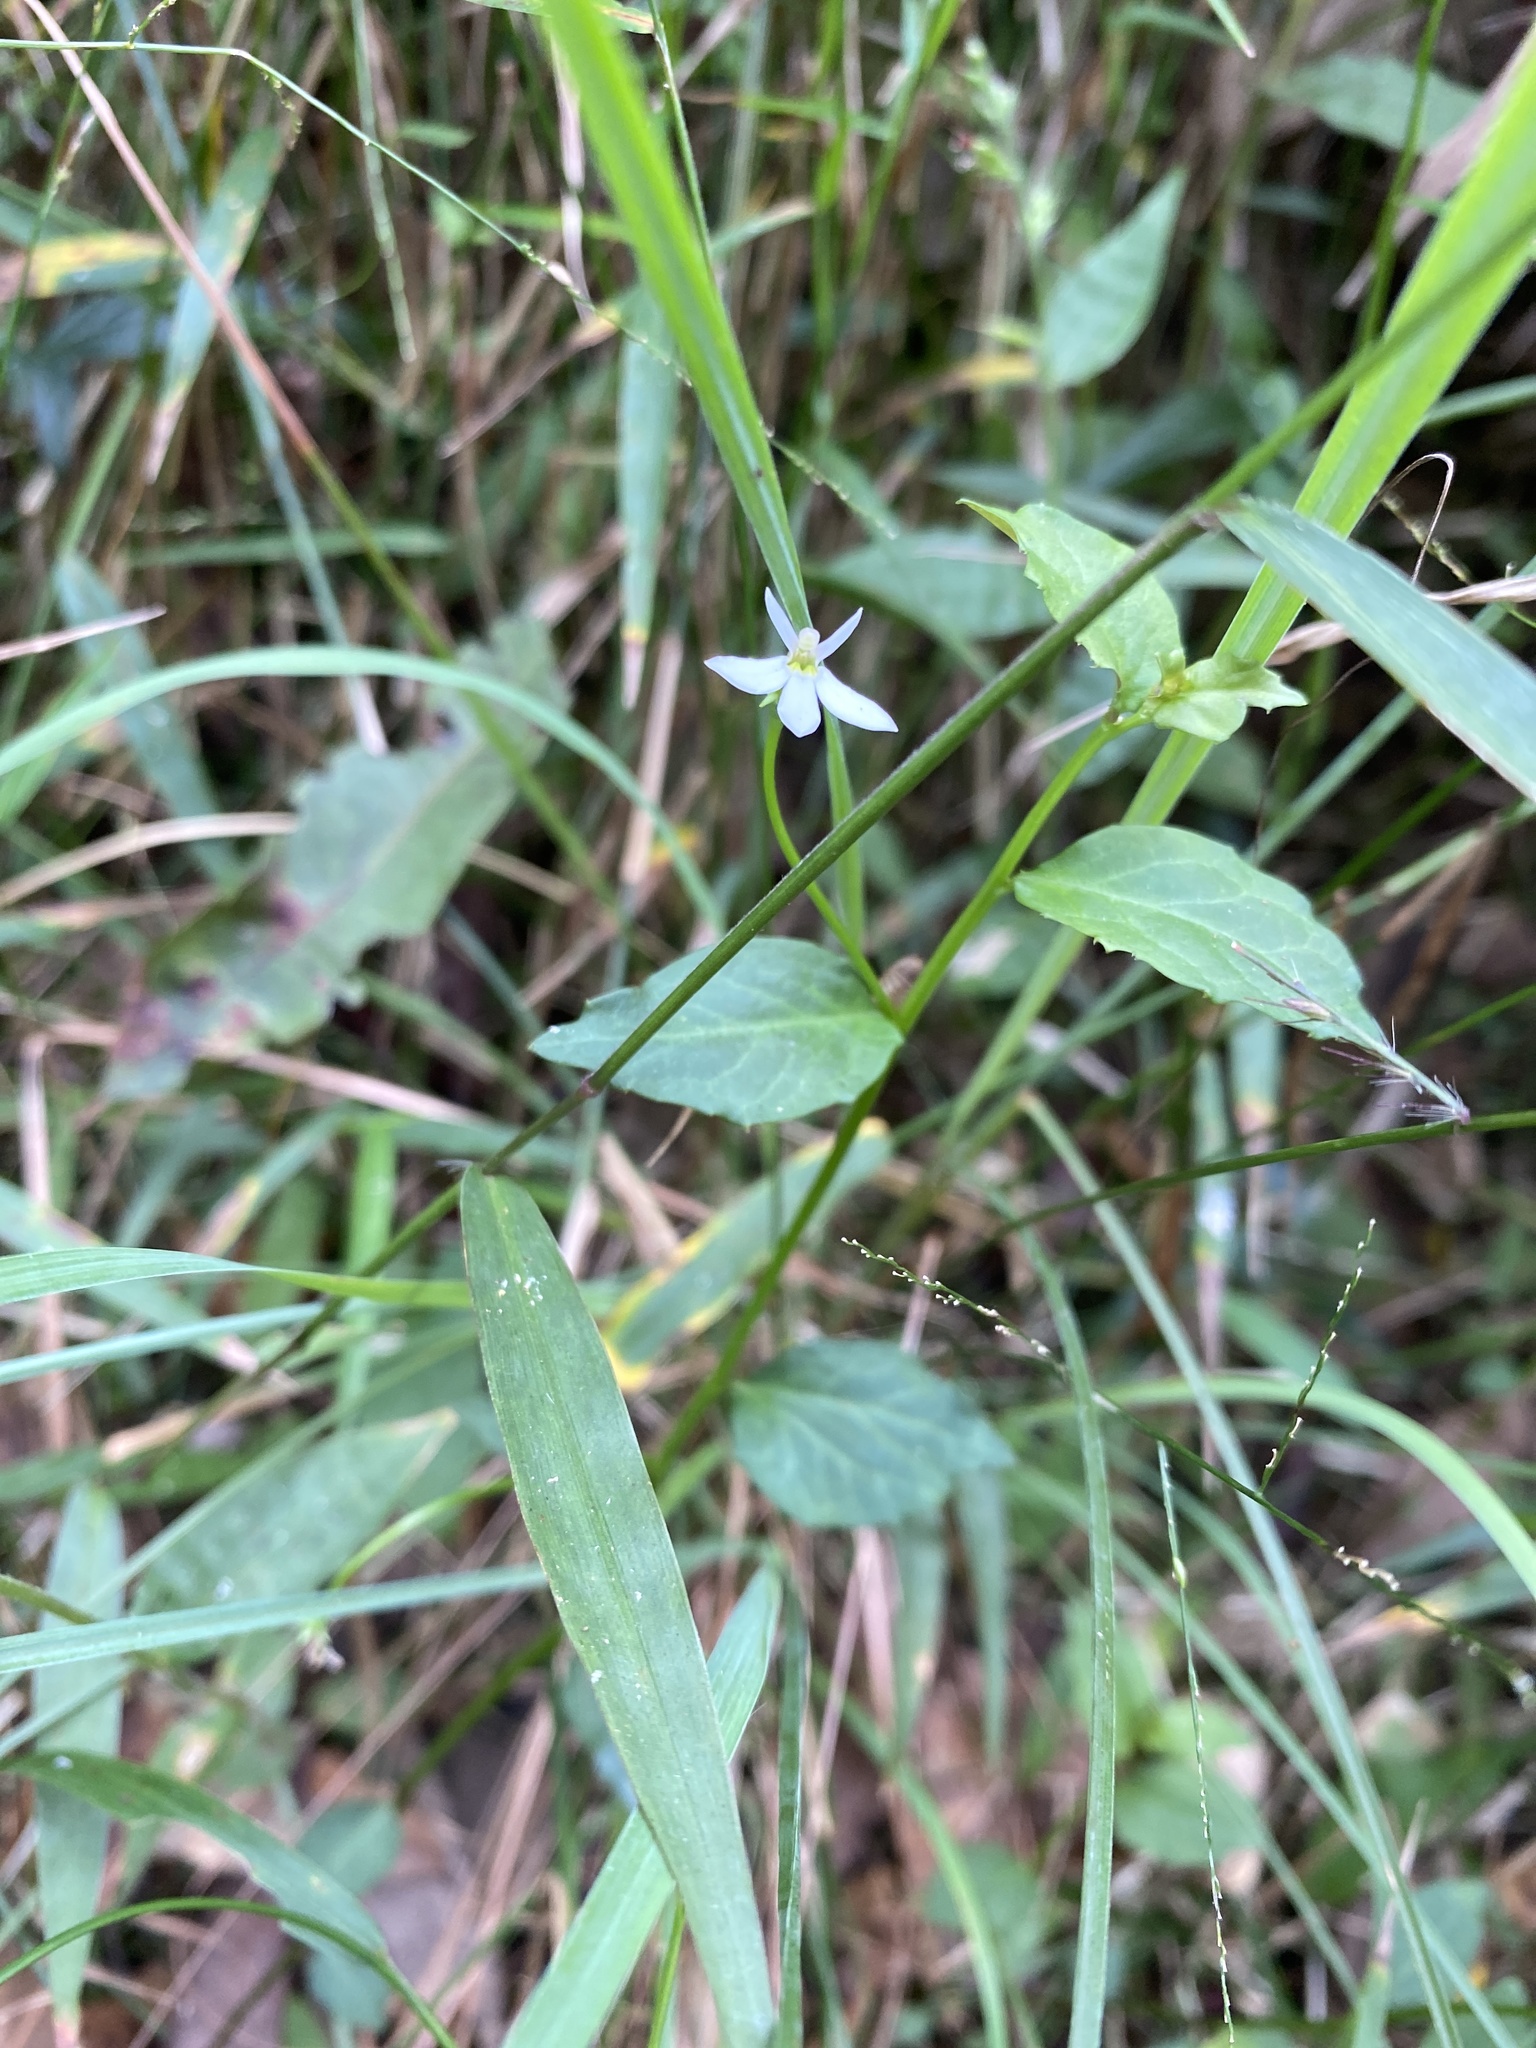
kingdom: Plantae
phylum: Tracheophyta
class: Magnoliopsida
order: Asterales
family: Campanulaceae
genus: Lobelia
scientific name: Lobelia purpurascens
